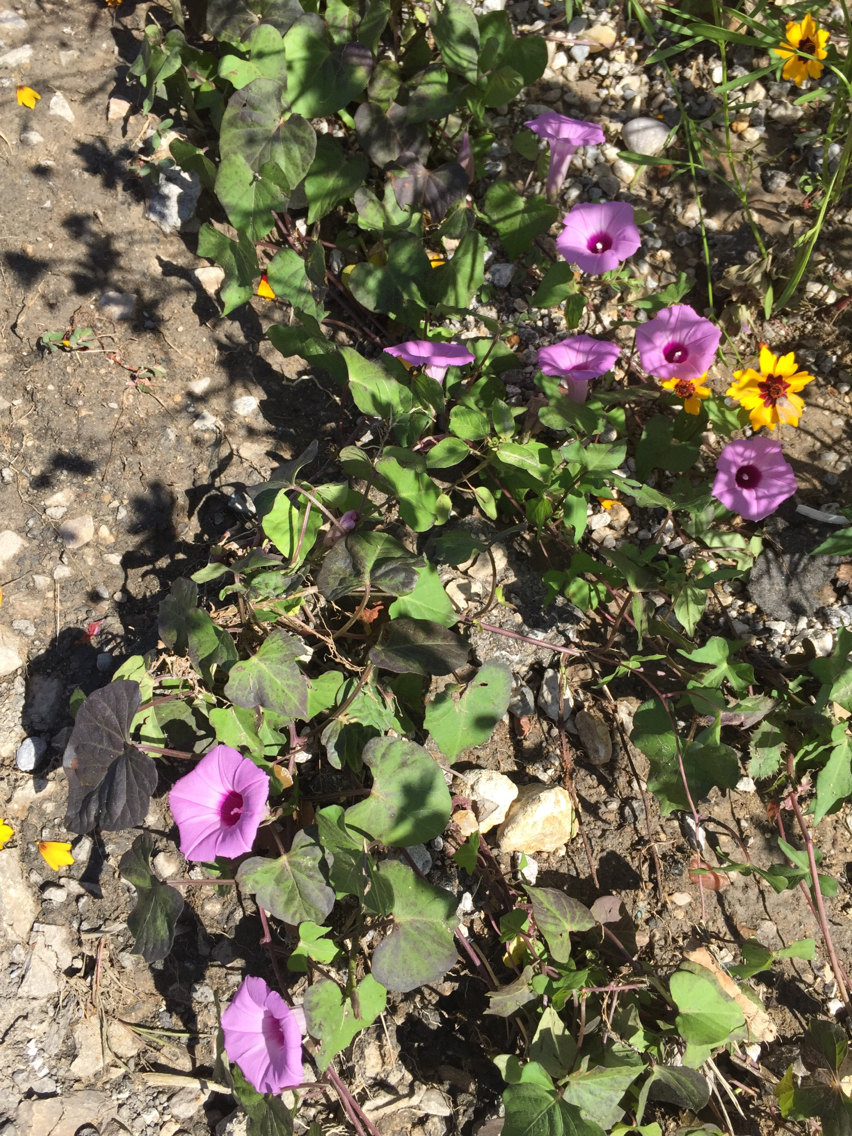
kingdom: Plantae
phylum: Tracheophyta
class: Magnoliopsida
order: Solanales
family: Convolvulaceae
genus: Ipomoea
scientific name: Ipomoea cordatotriloba
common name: Cotton morning glory
